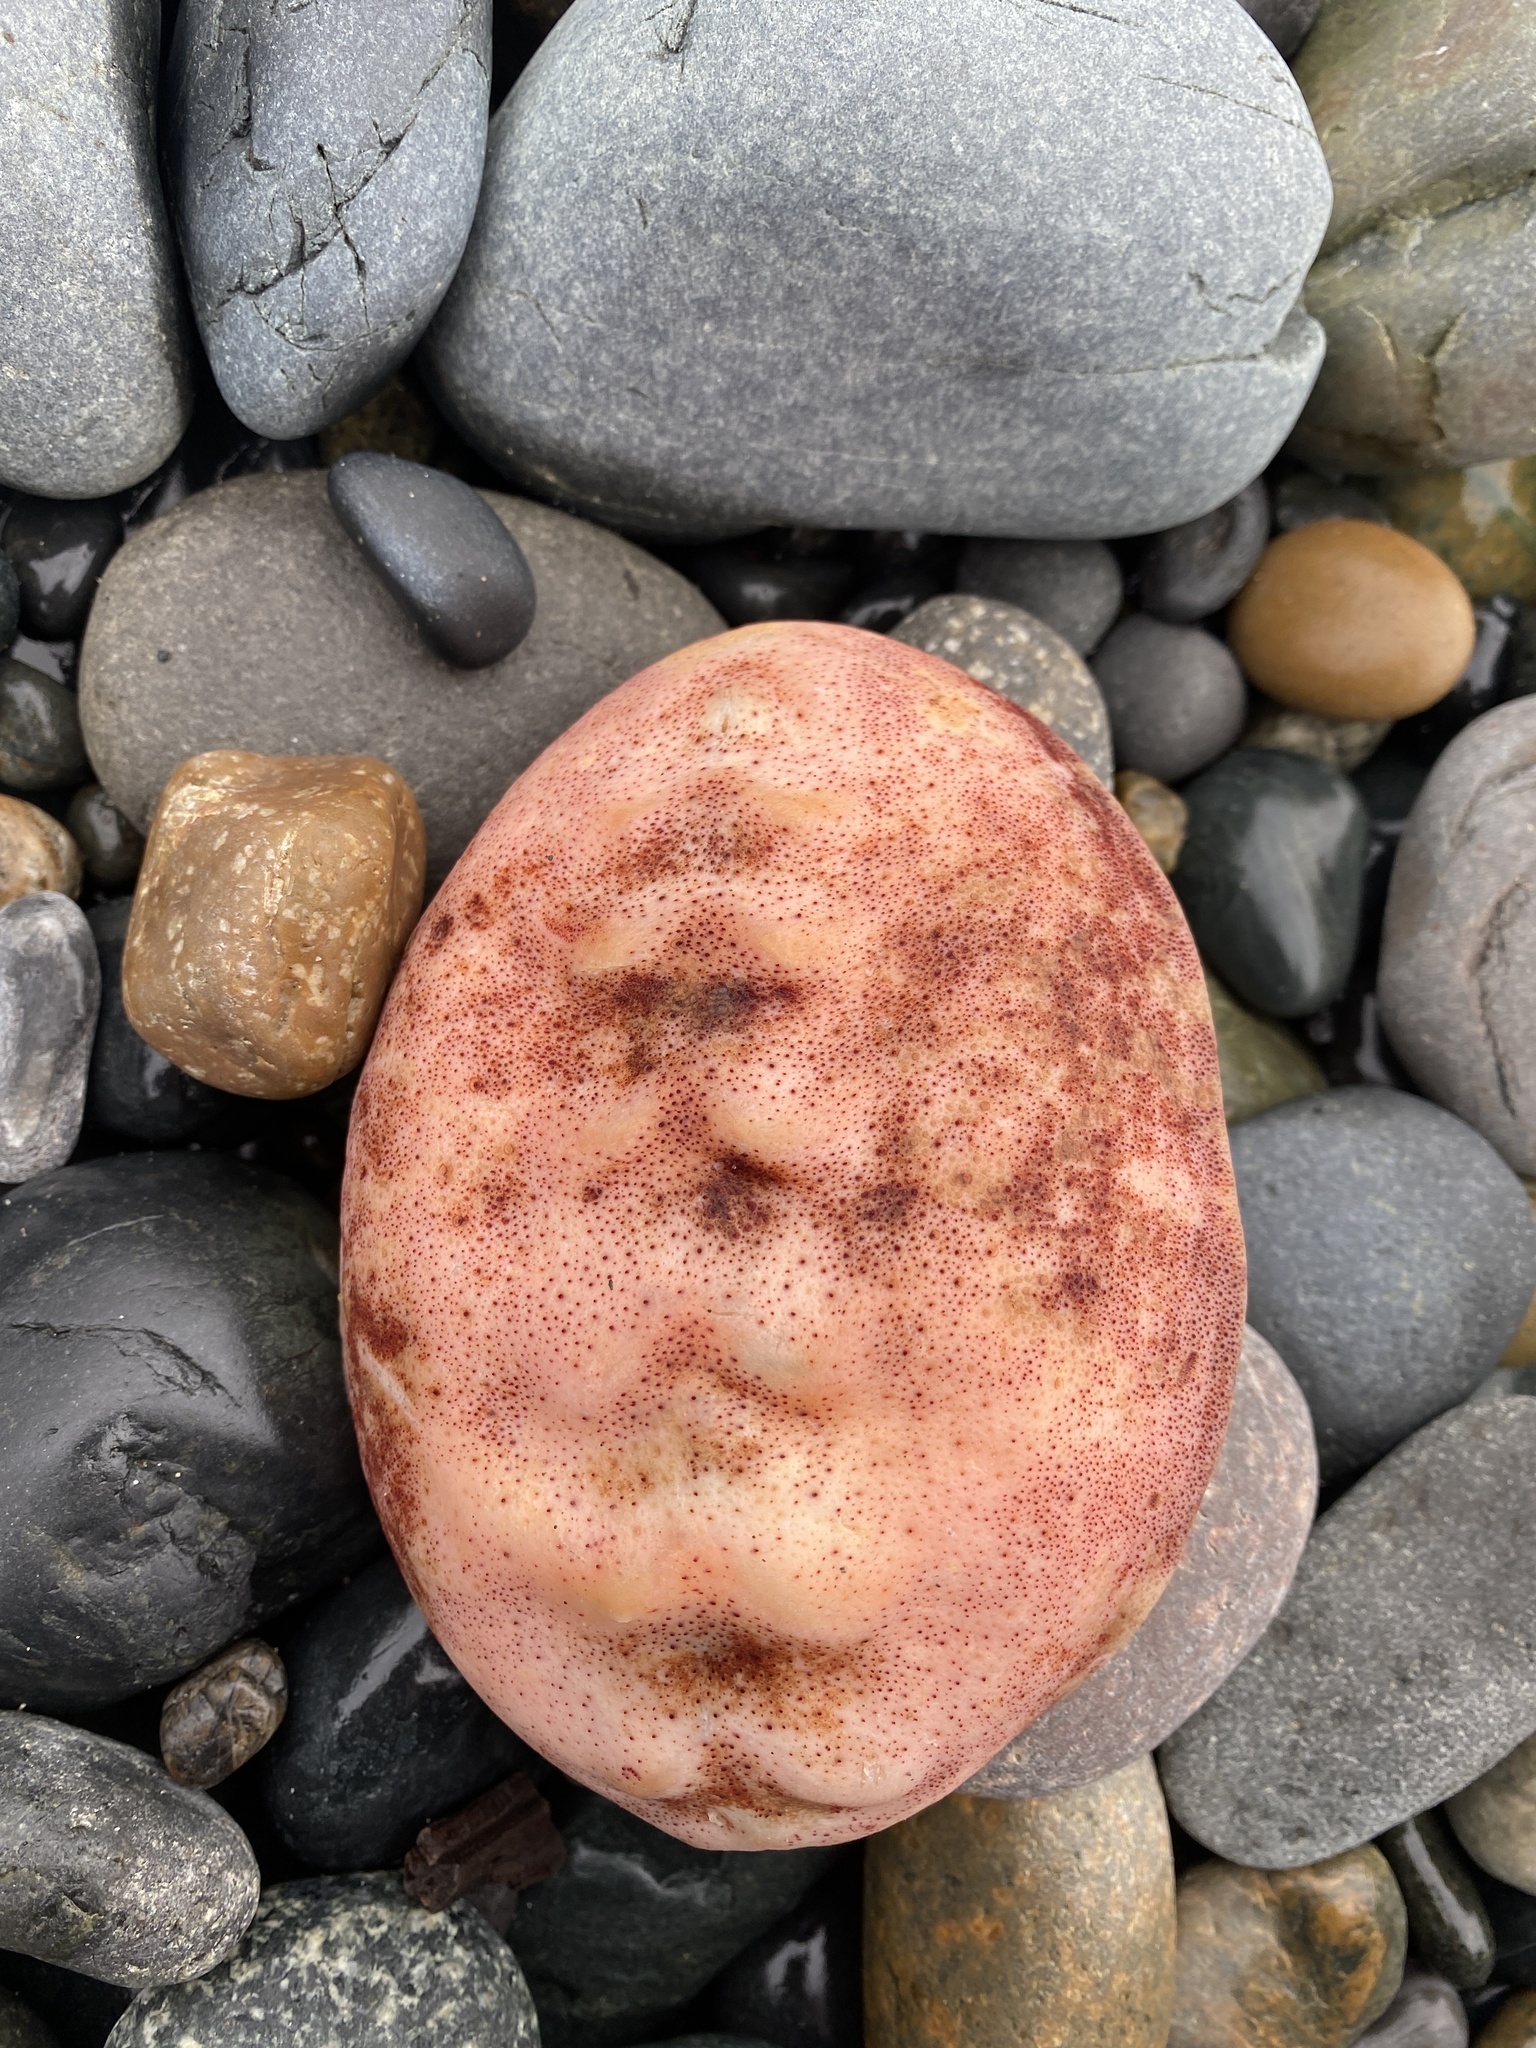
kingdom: Animalia
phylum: Mollusca
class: Polyplacophora
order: Chitonida
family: Acanthochitonidae
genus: Cryptochiton
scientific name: Cryptochiton stelleri
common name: Giant pacific chiton
